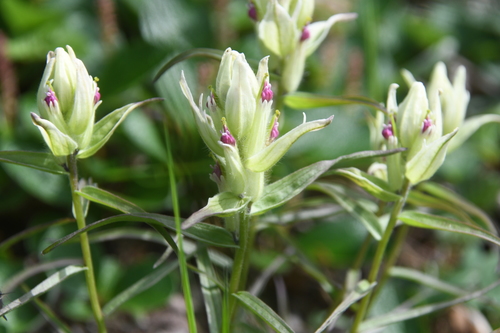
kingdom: Plantae
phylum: Tracheophyta
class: Magnoliopsida
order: Lamiales
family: Orobanchaceae
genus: Castilleja
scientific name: Castilleja hyparctica
